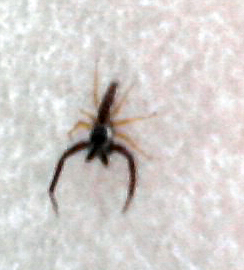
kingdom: Animalia
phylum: Arthropoda
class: Arachnida
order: Araneae
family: Salticidae
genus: Hentzia
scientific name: Hentzia palmarum
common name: Common hentz jumping spider
